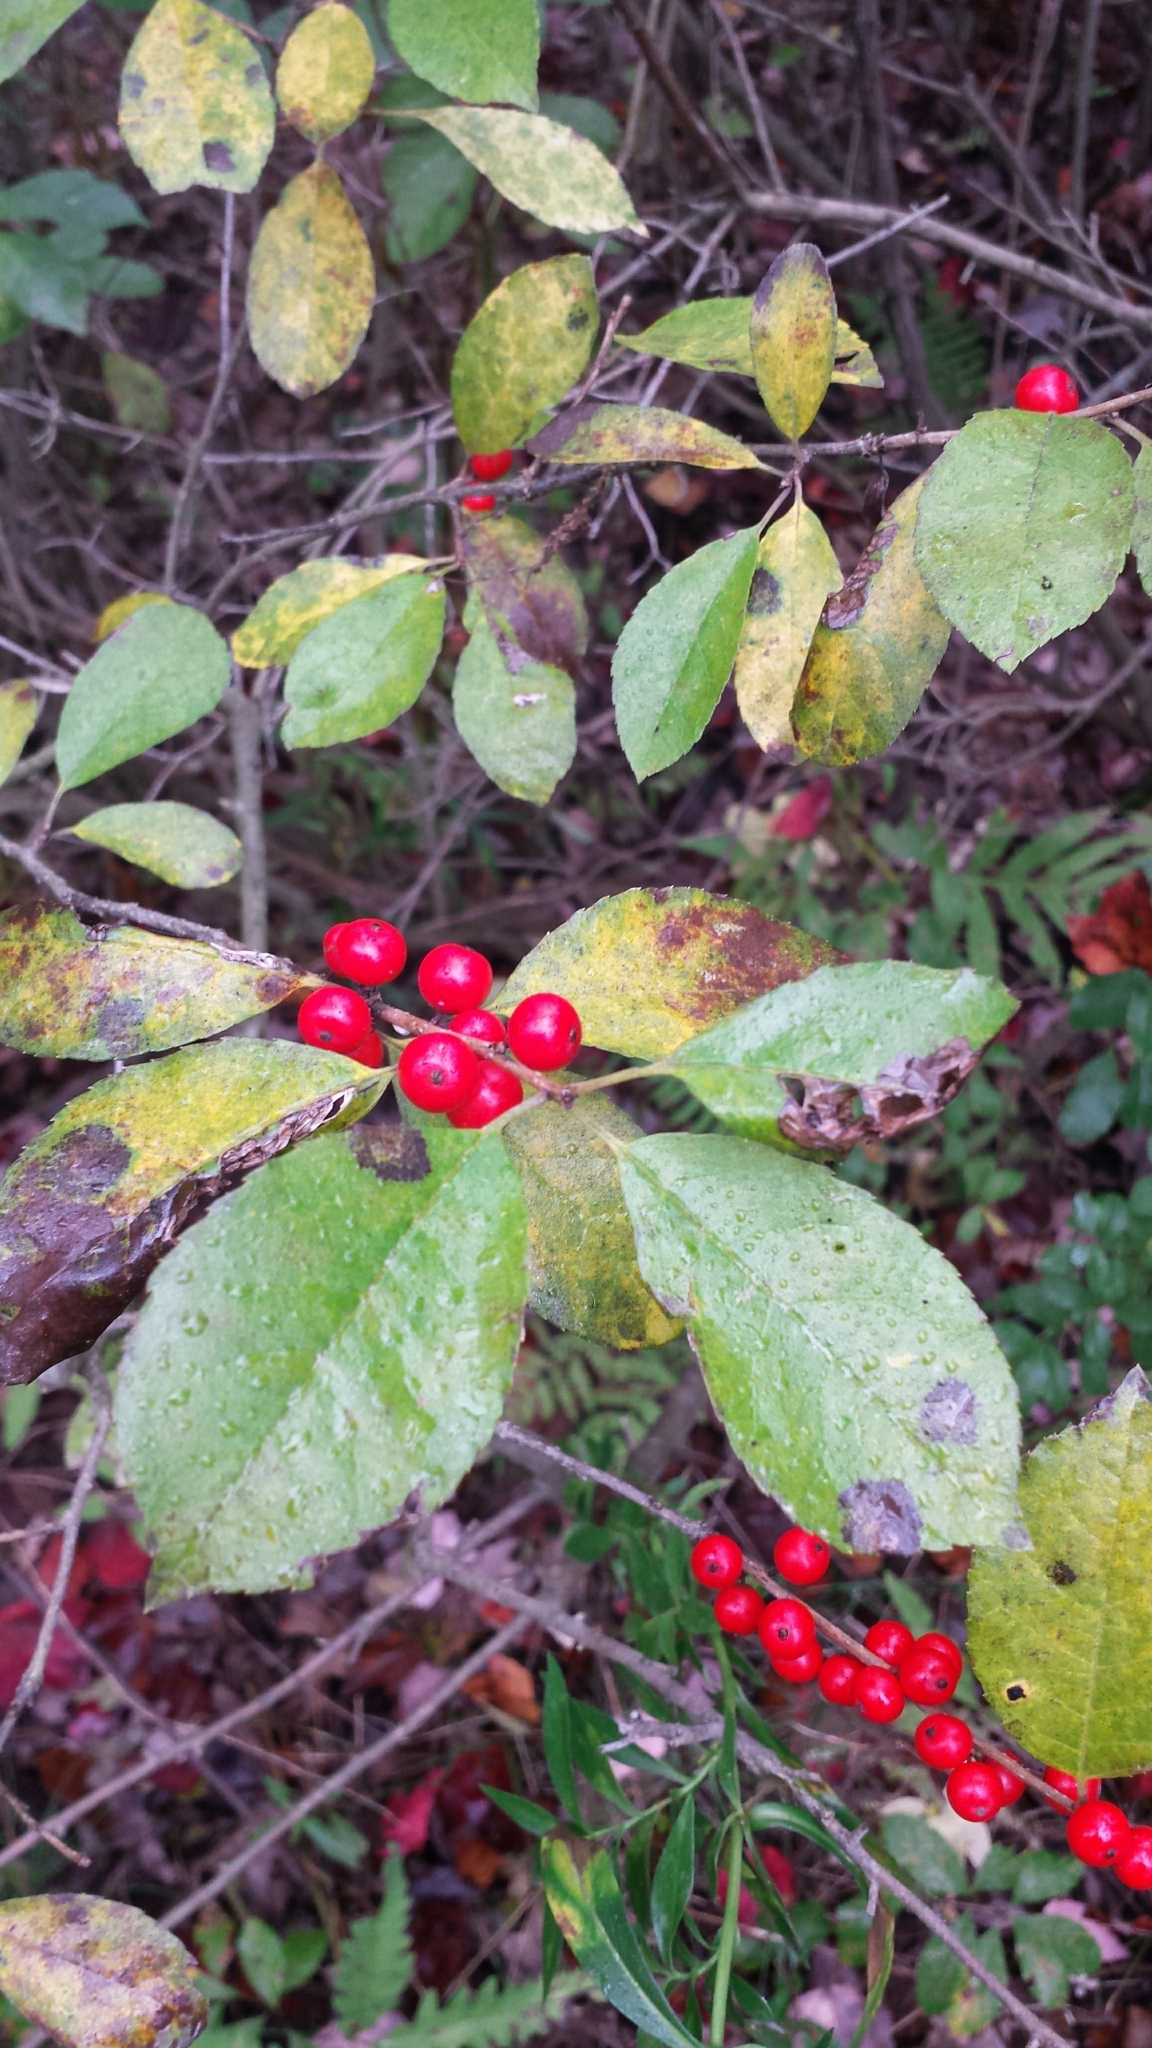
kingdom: Plantae
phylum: Tracheophyta
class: Magnoliopsida
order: Aquifoliales
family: Aquifoliaceae
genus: Ilex
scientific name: Ilex verticillata
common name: Virginia winterberry
